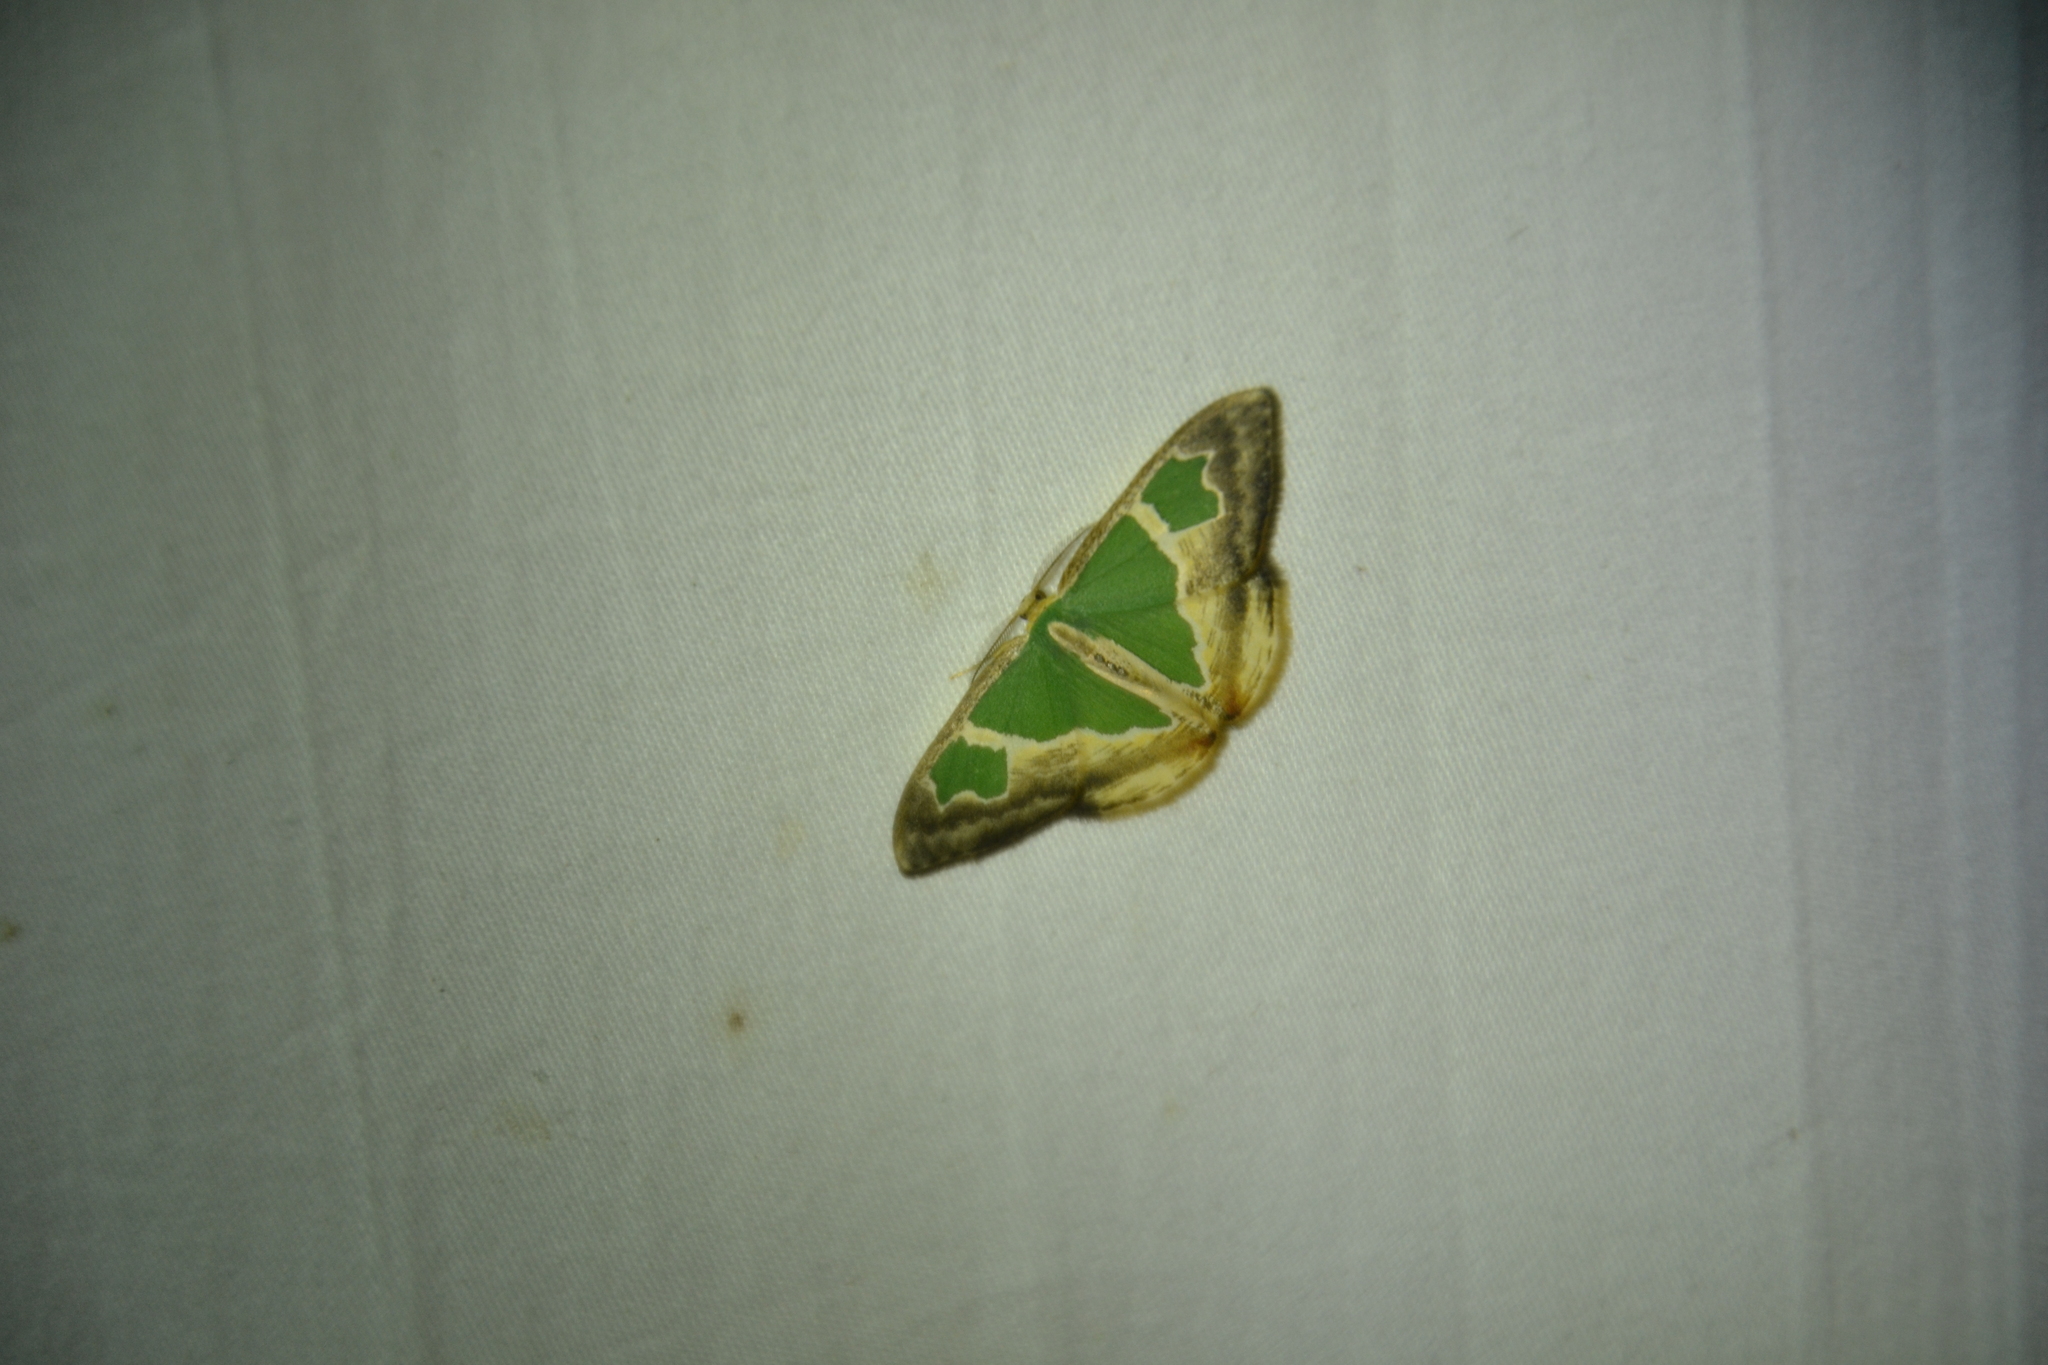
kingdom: Animalia
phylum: Arthropoda
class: Insecta
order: Lepidoptera
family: Geometridae
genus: Oospila
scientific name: Oospila venezuelata
